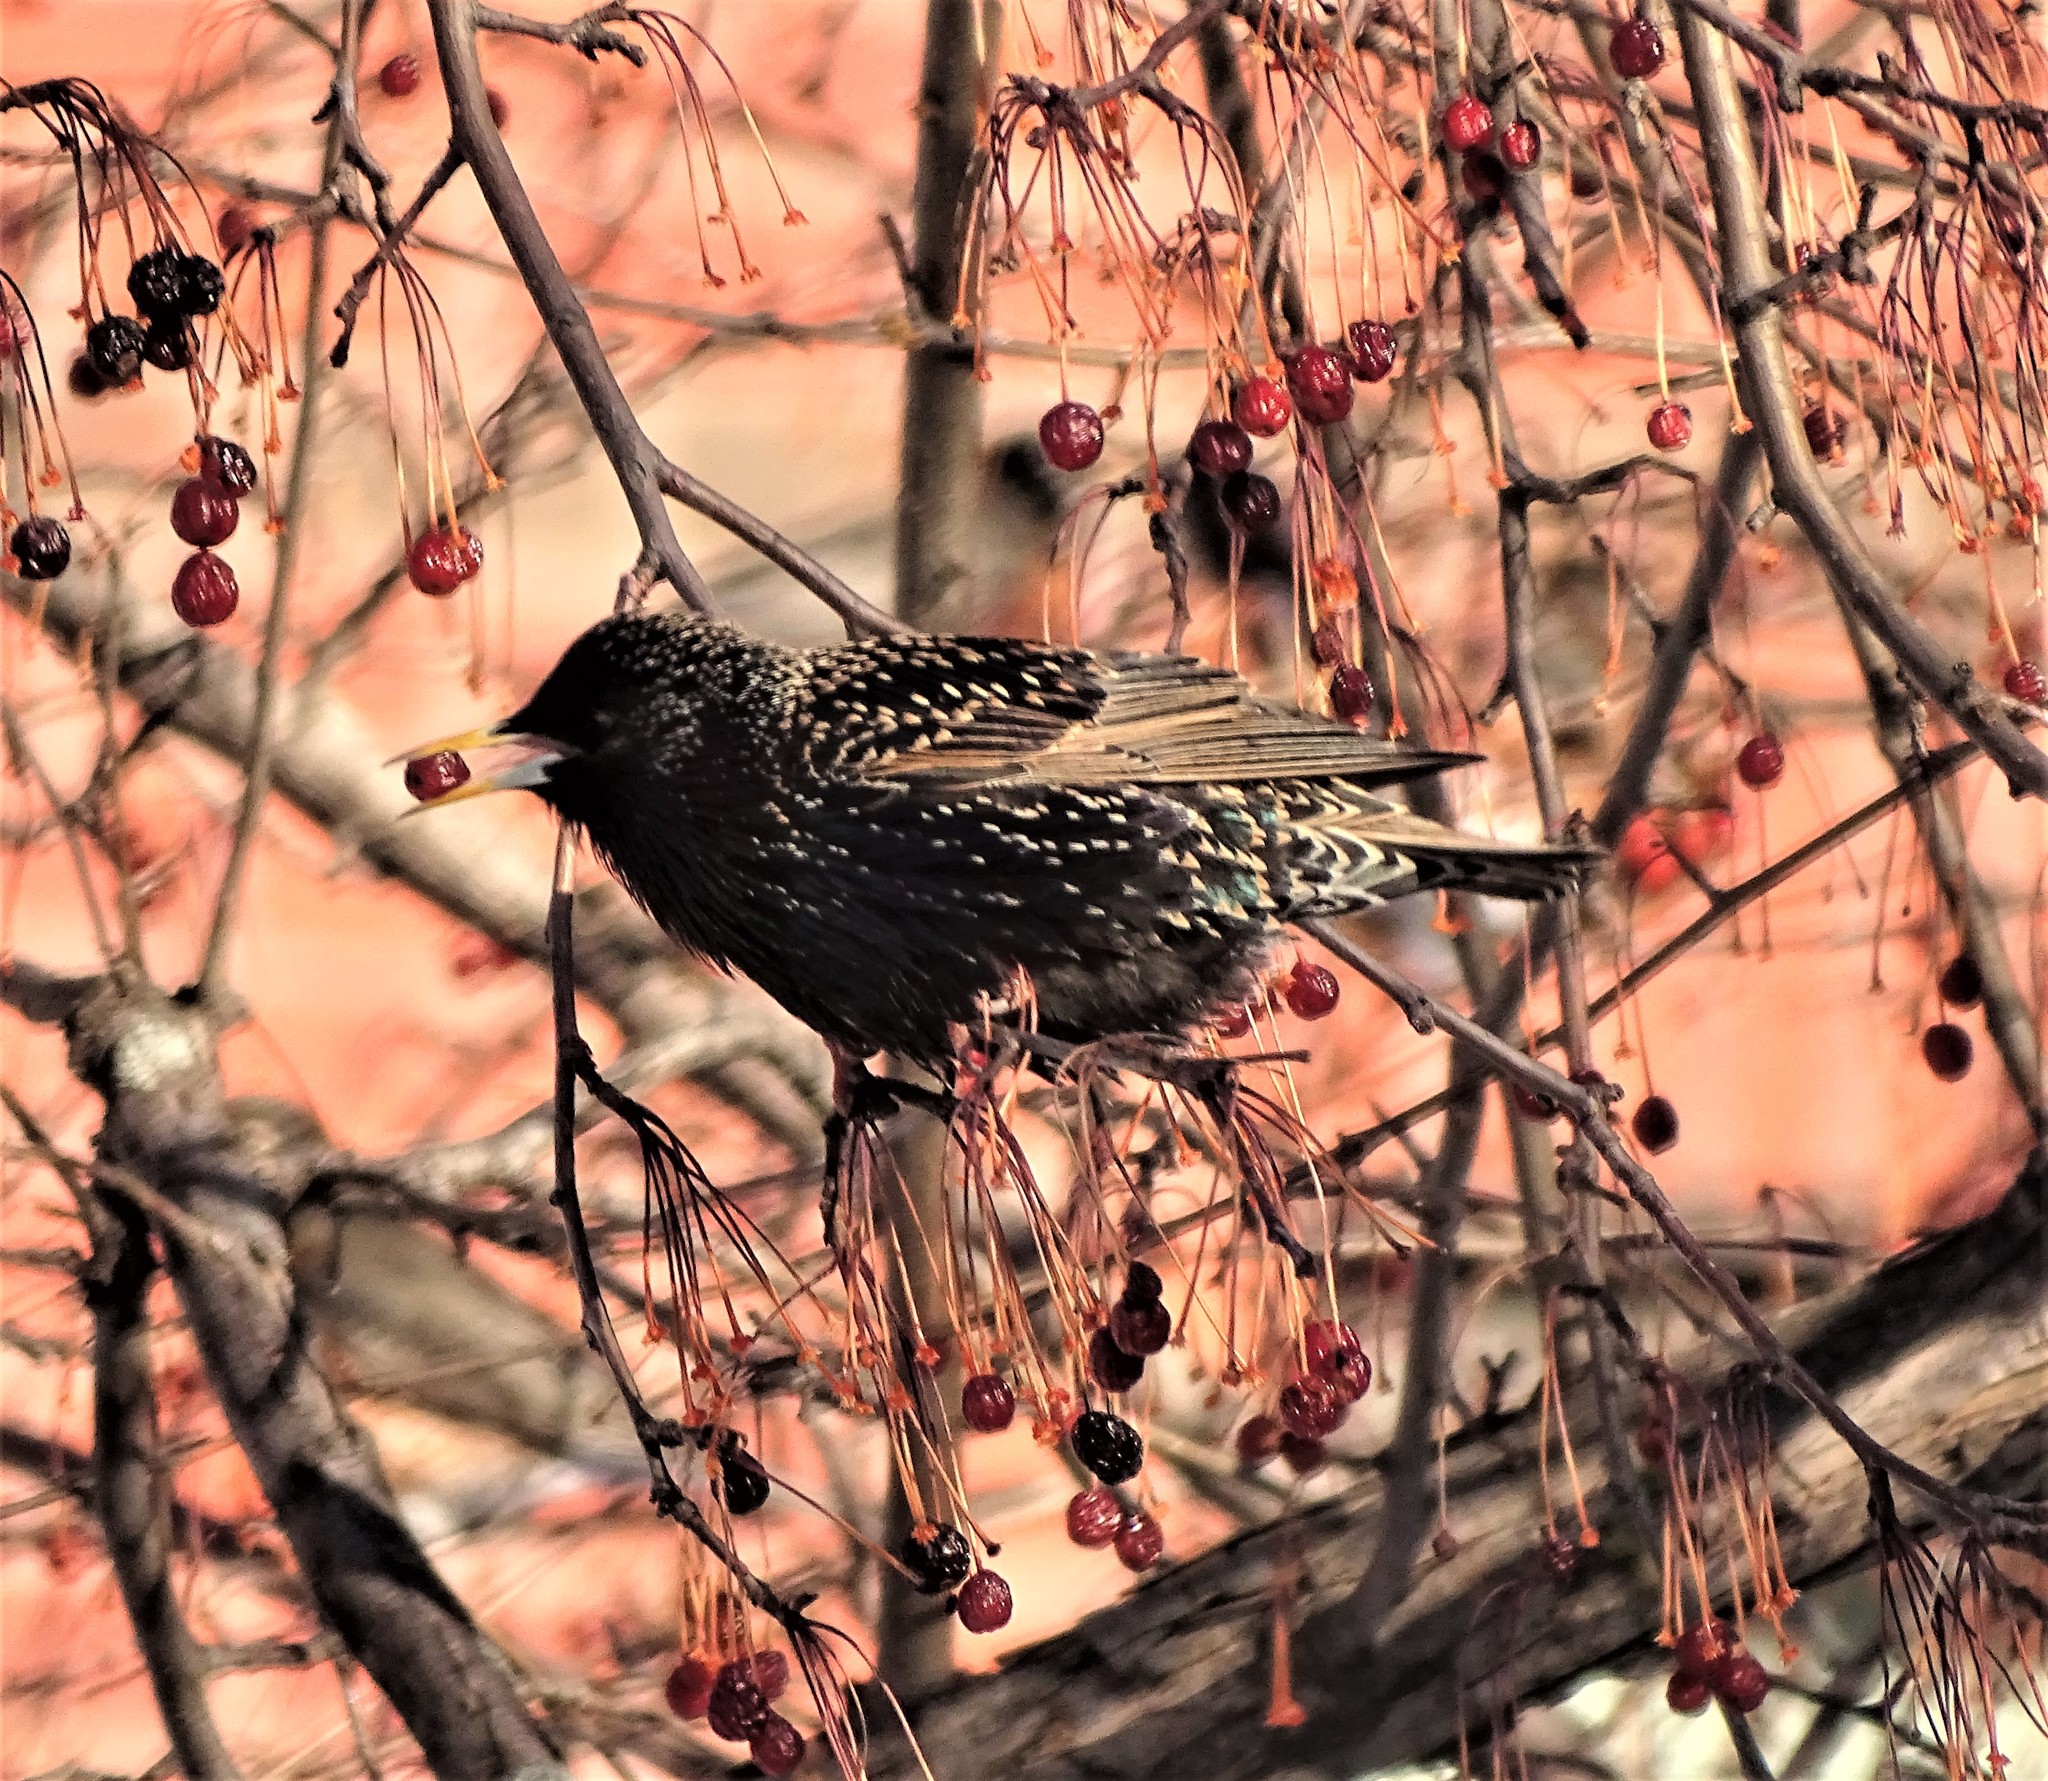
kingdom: Animalia
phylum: Chordata
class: Aves
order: Passeriformes
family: Sturnidae
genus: Sturnus
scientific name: Sturnus vulgaris
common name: Common starling
